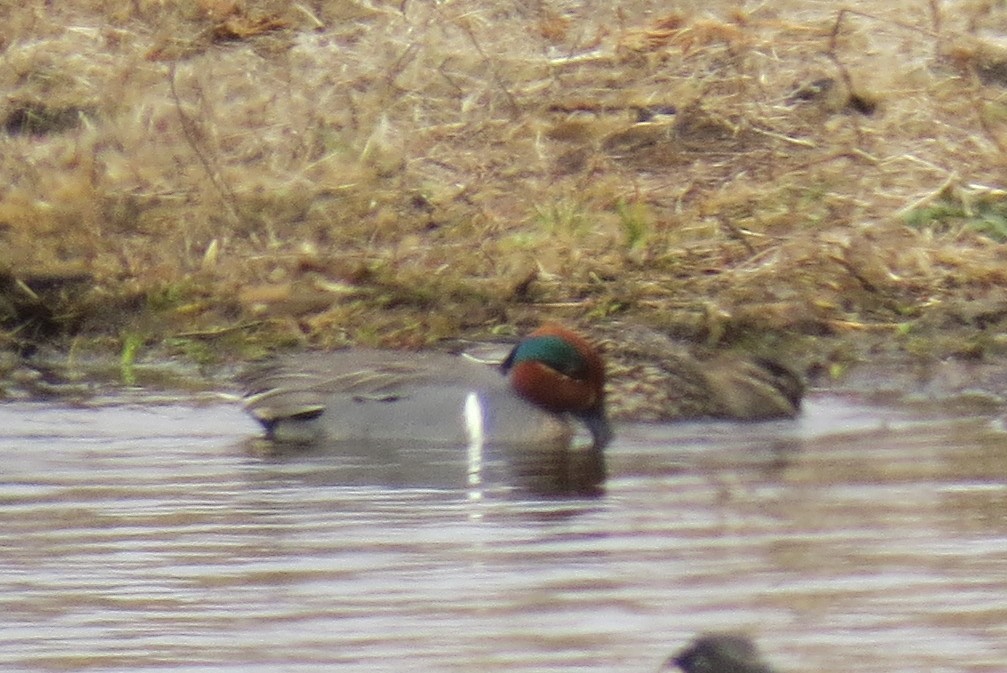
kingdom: Animalia
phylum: Chordata
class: Aves
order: Anseriformes
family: Anatidae
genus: Anas
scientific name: Anas crecca
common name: Eurasian teal
